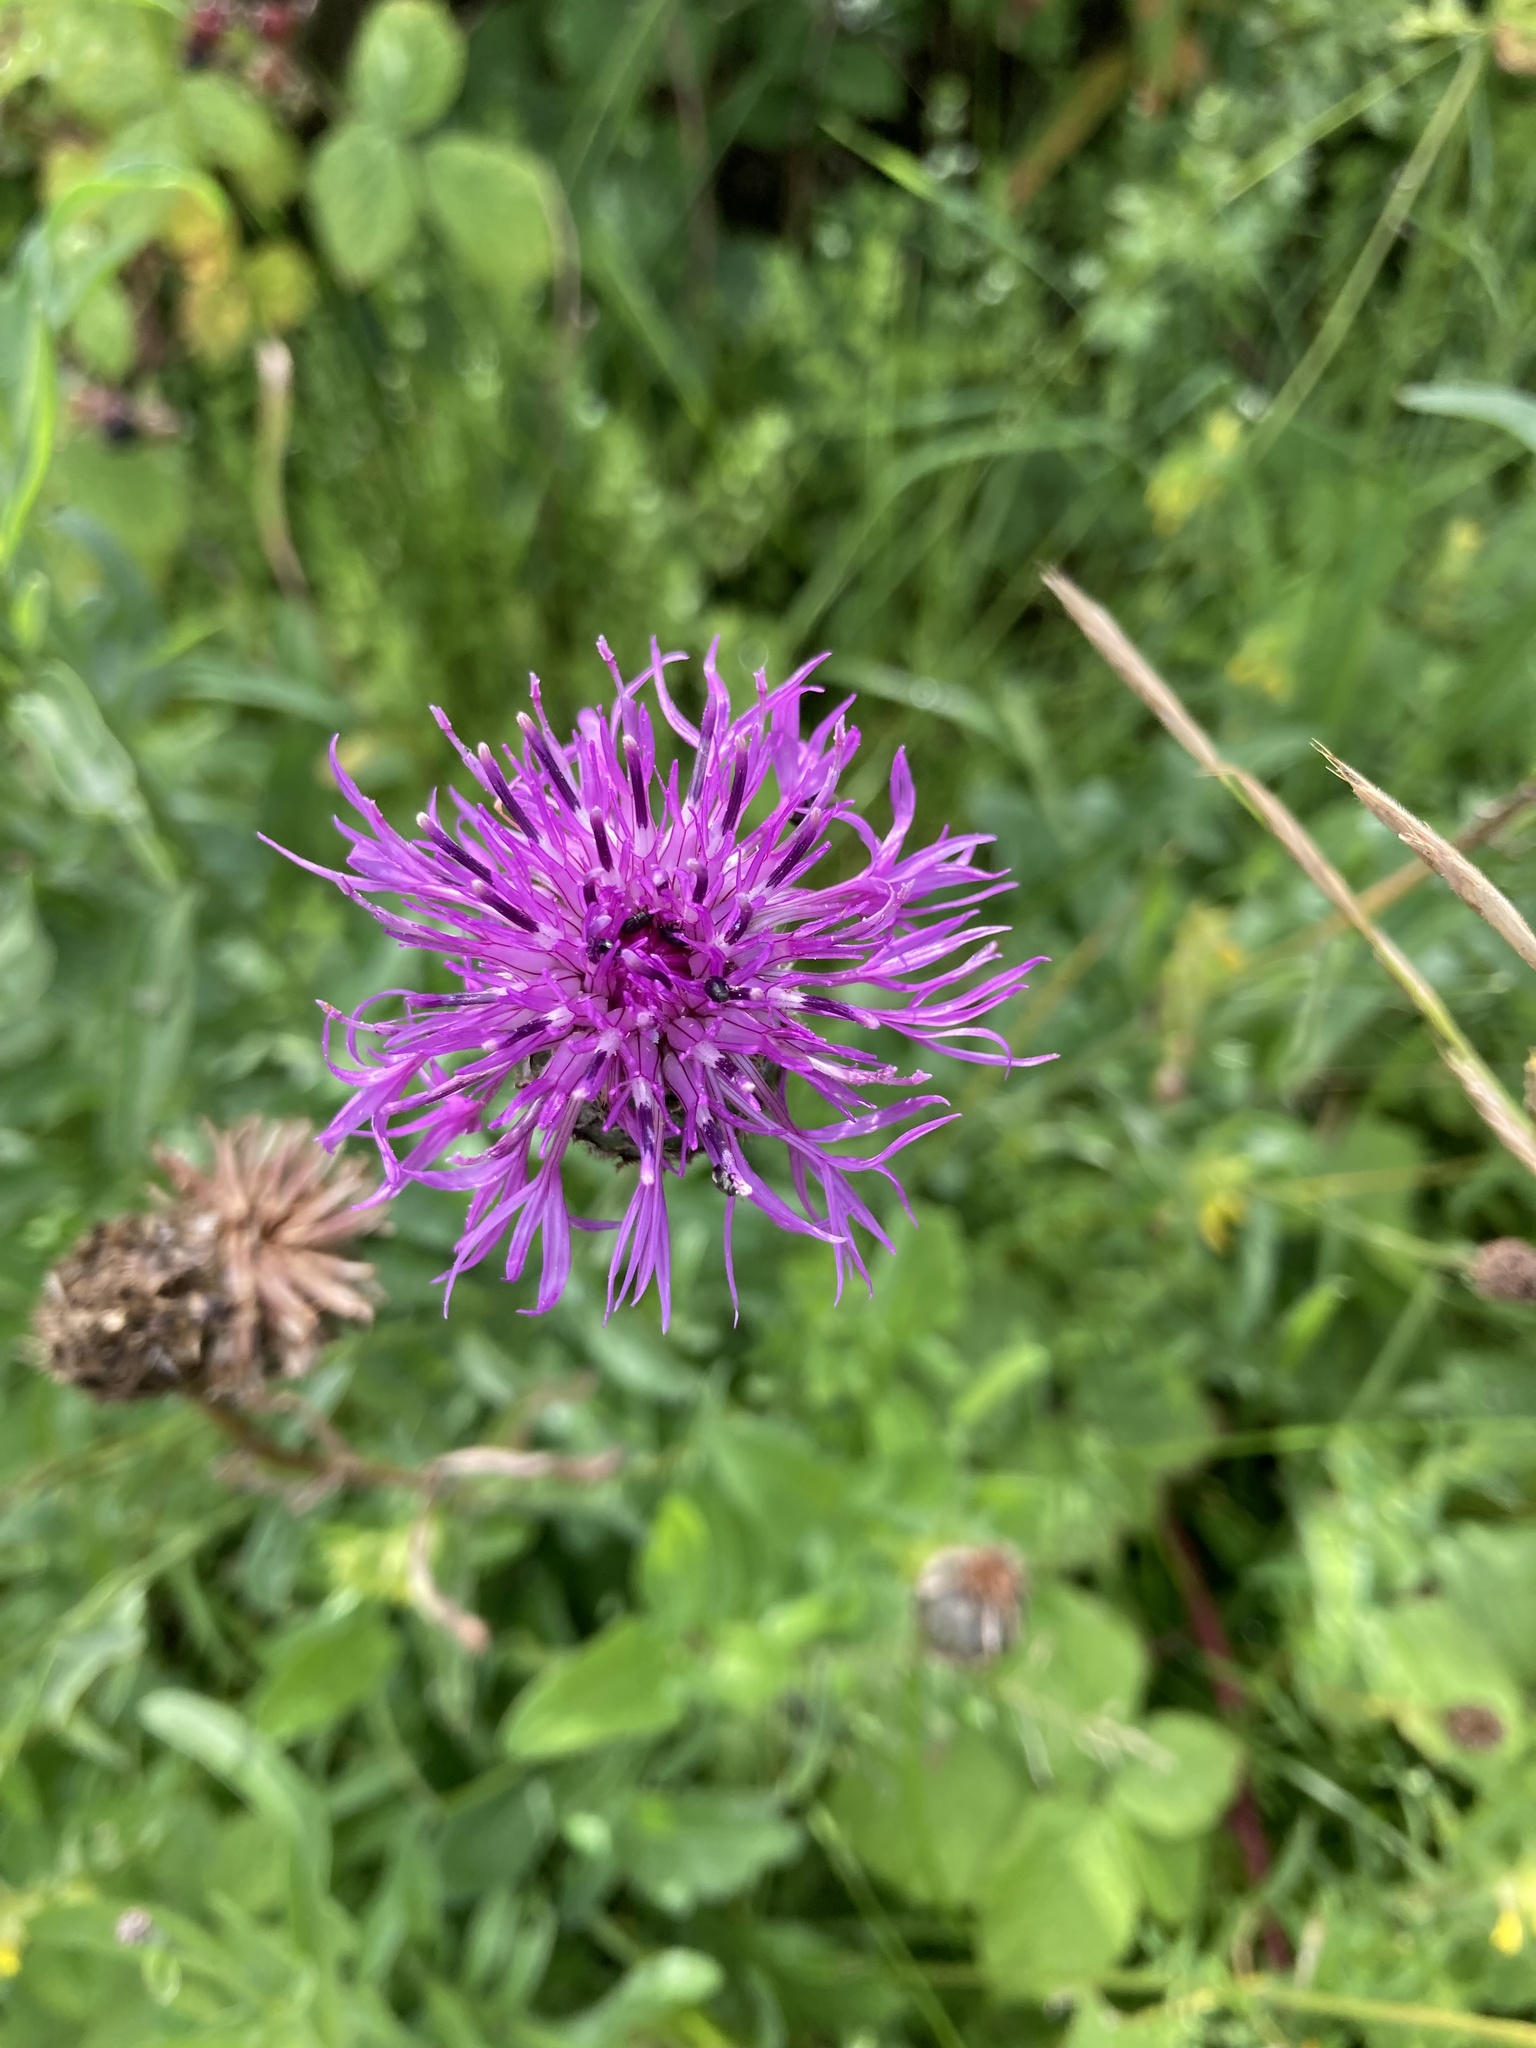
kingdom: Plantae
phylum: Tracheophyta
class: Magnoliopsida
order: Asterales
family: Asteraceae
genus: Centaurea
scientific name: Centaurea scabiosa
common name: Greater knapweed
